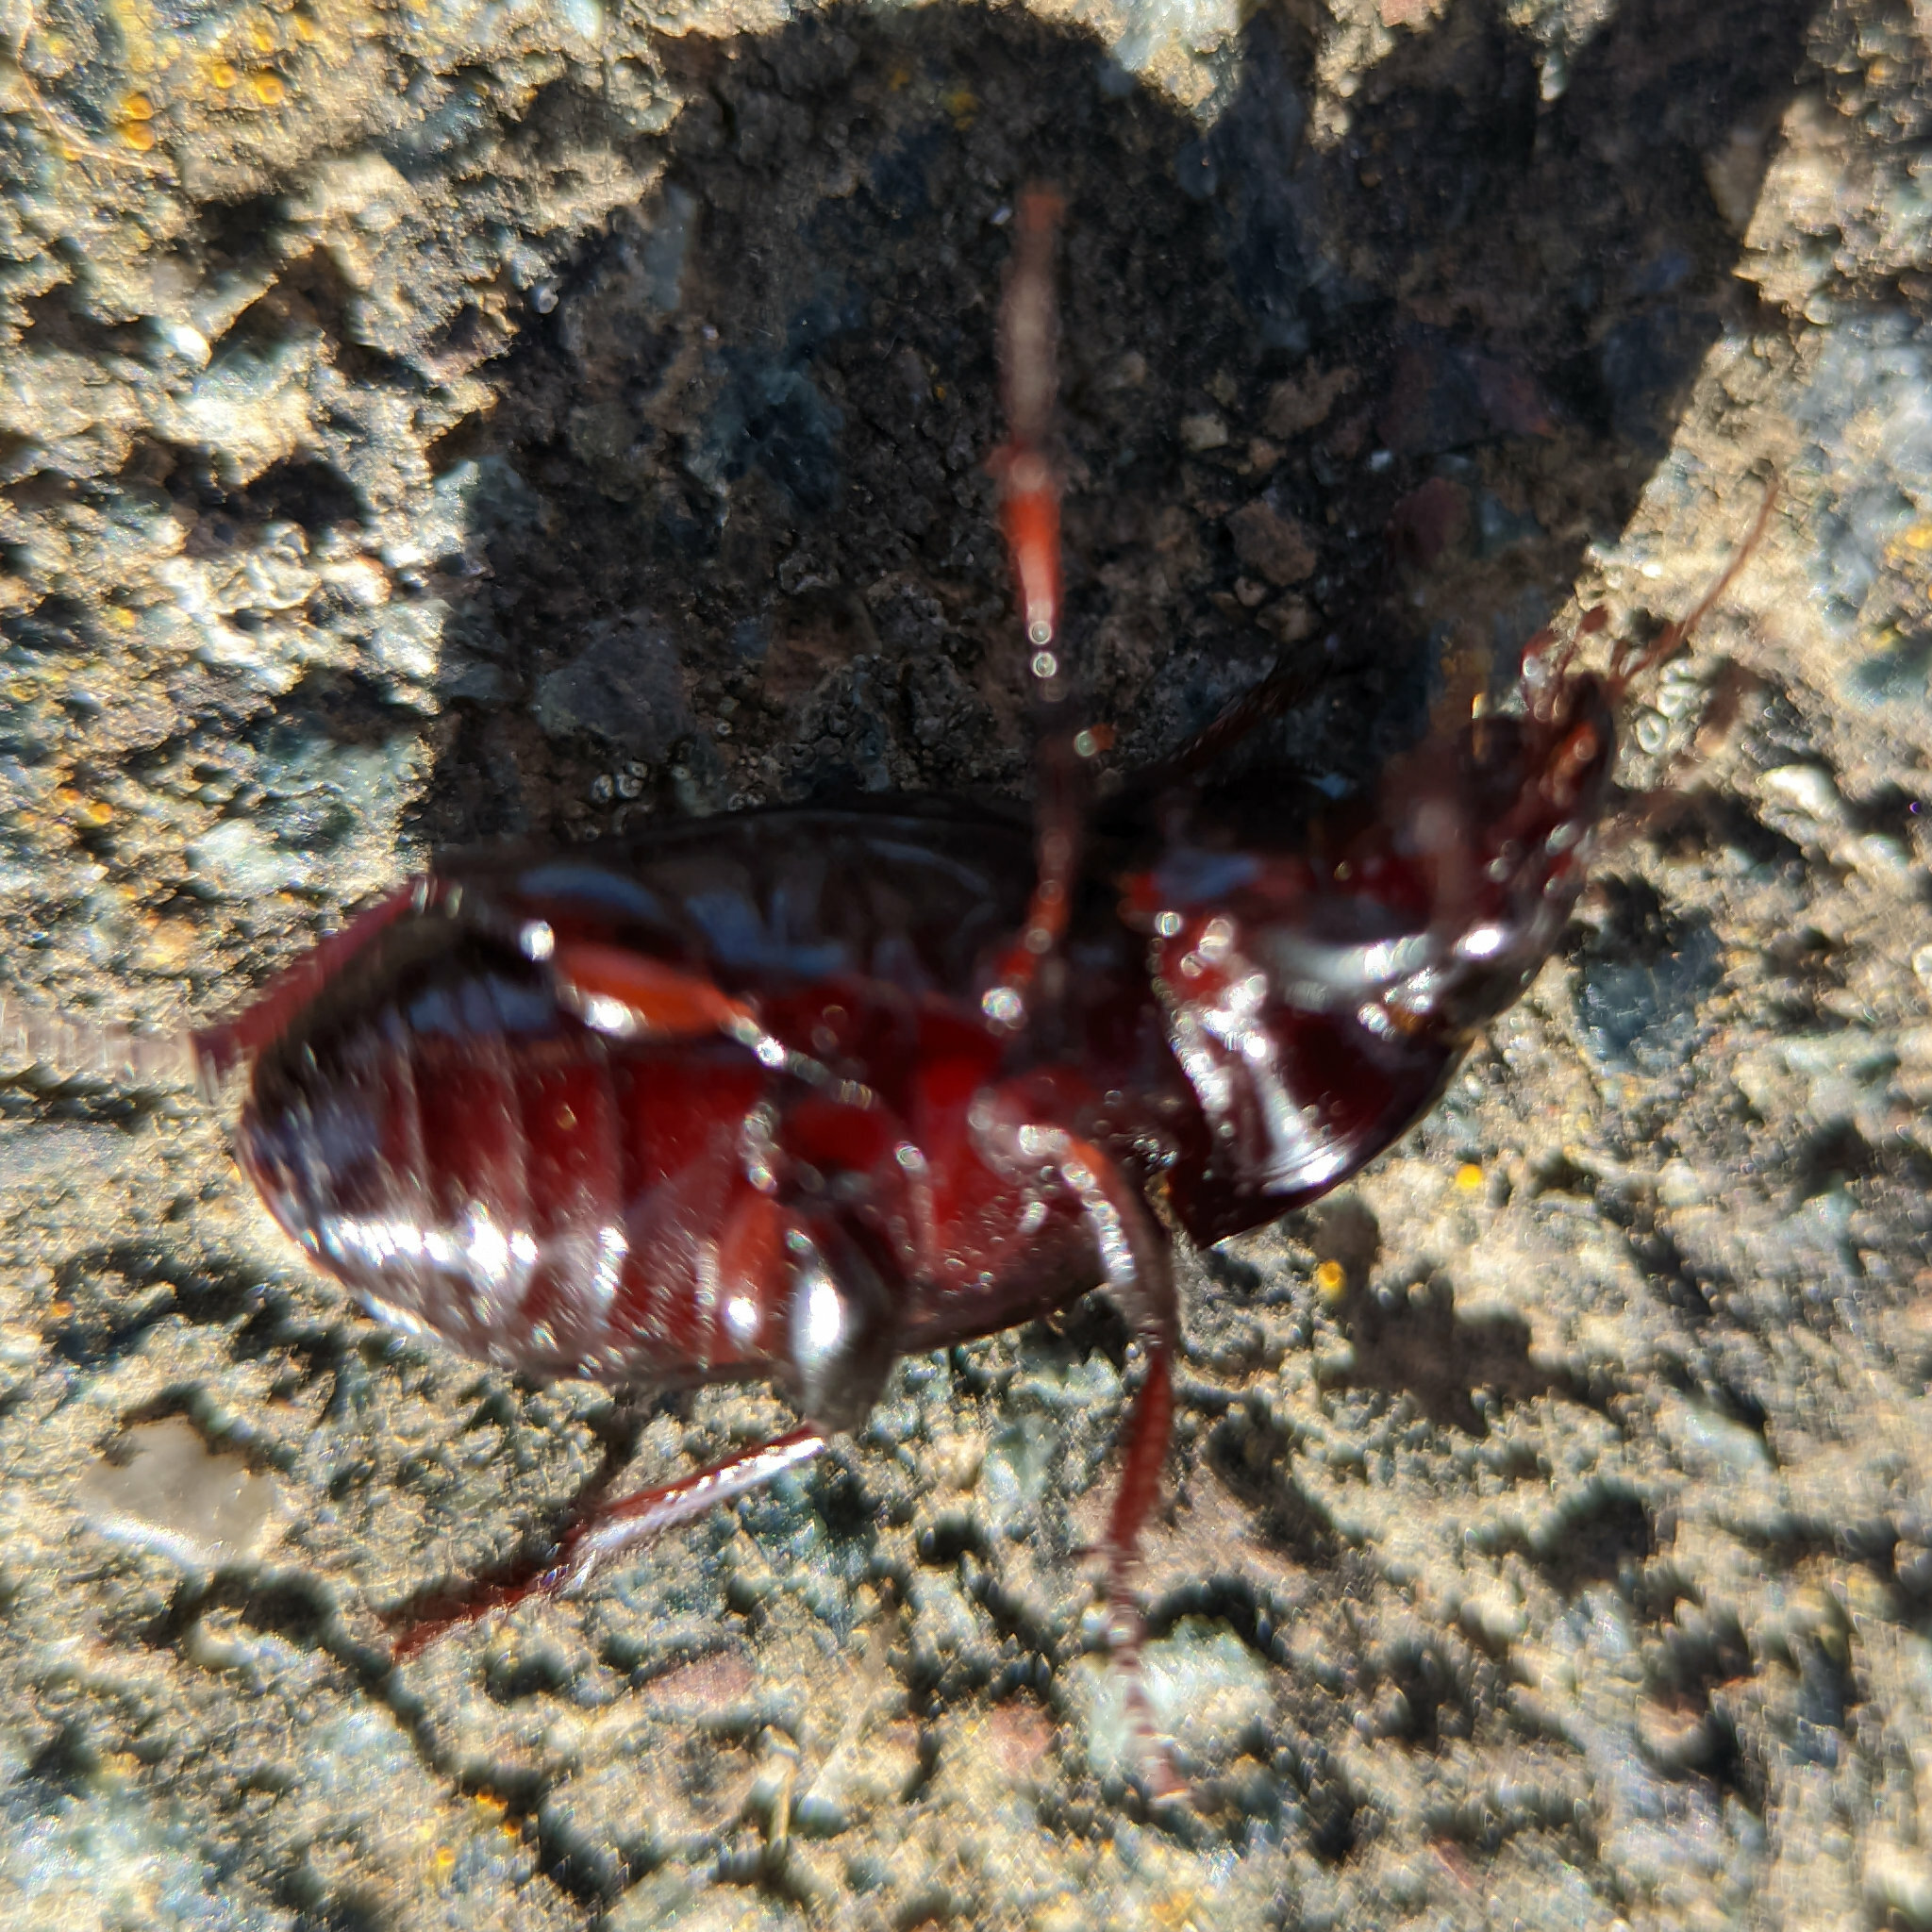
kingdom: Animalia
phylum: Arthropoda
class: Insecta
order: Coleoptera
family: Carabidae
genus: Zabrus
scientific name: Zabrus tenebrioides
